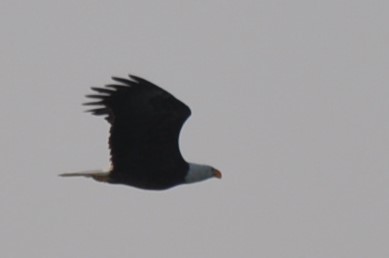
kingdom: Animalia
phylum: Chordata
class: Aves
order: Accipitriformes
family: Accipitridae
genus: Haliaeetus
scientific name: Haliaeetus leucocephalus
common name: Bald eagle
